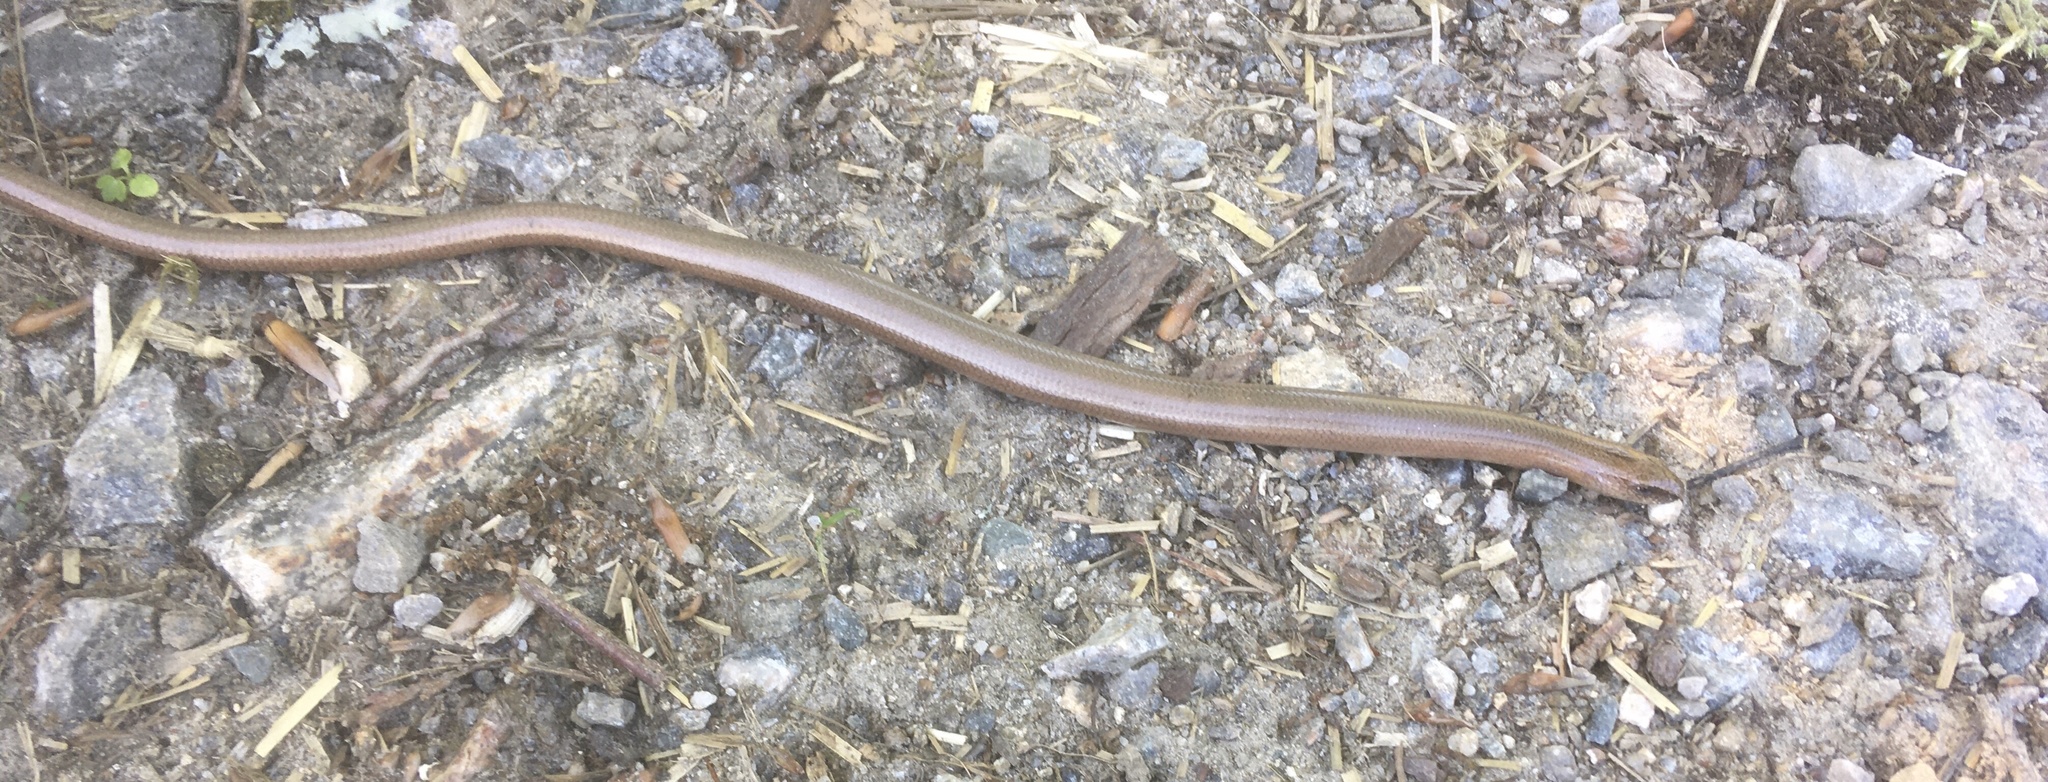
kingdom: Animalia
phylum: Chordata
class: Squamata
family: Anguidae
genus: Anguis
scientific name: Anguis fragilis
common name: Slow worm
